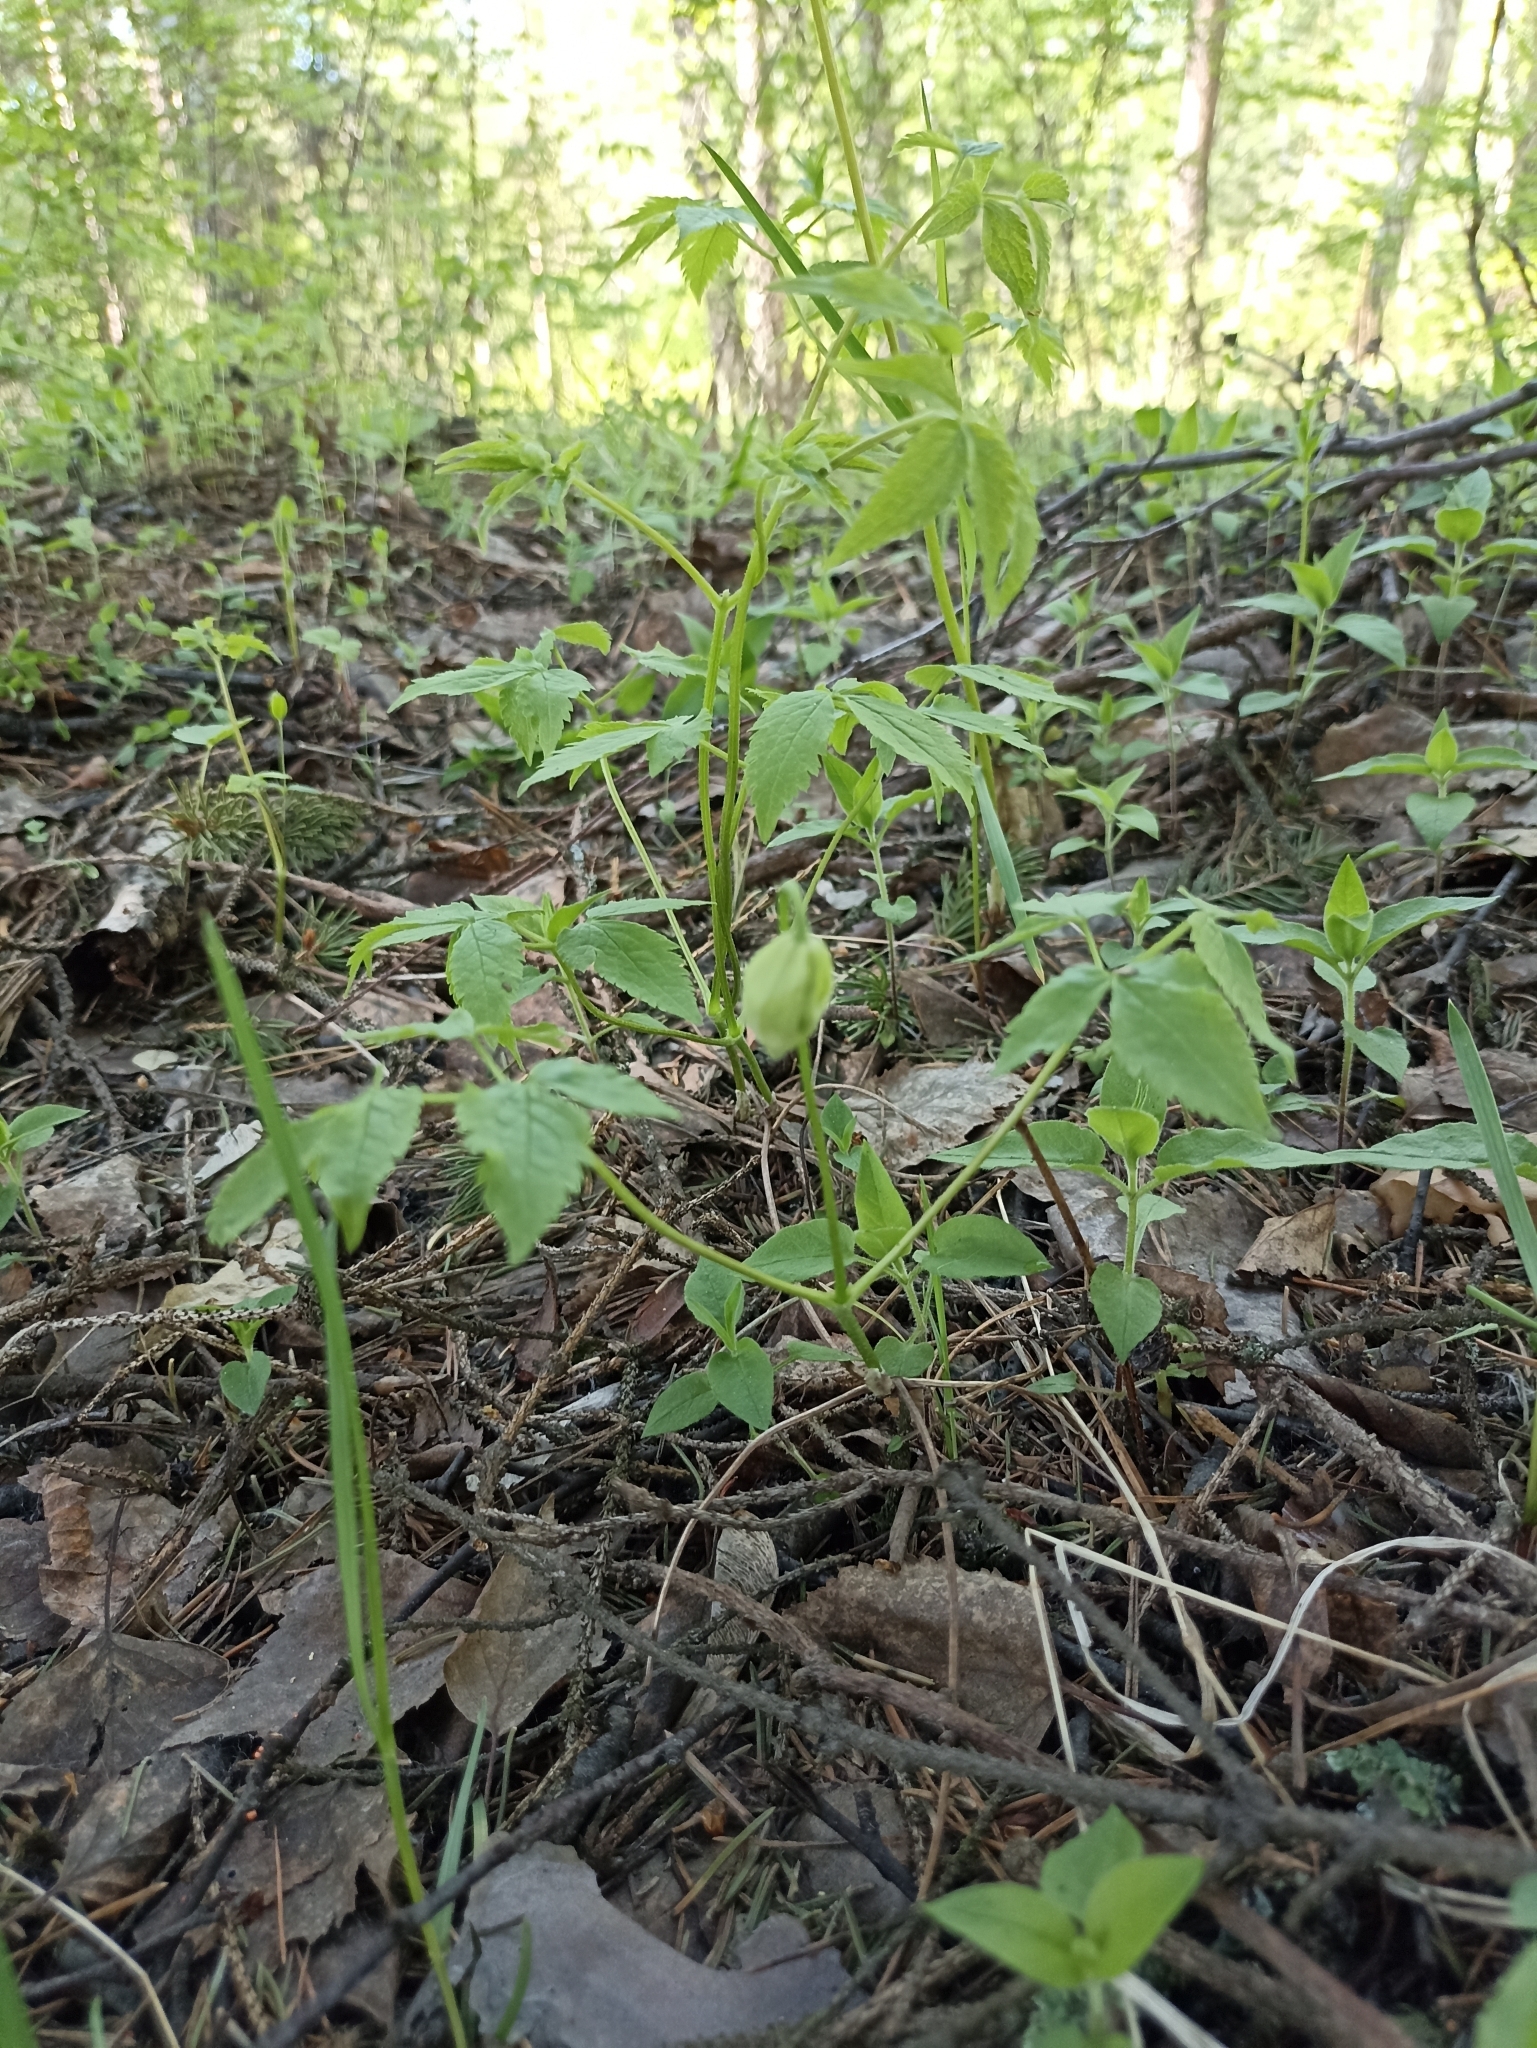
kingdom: Plantae
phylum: Tracheophyta
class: Magnoliopsida
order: Ranunculales
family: Ranunculaceae
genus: Clematis
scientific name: Clematis sibirica
